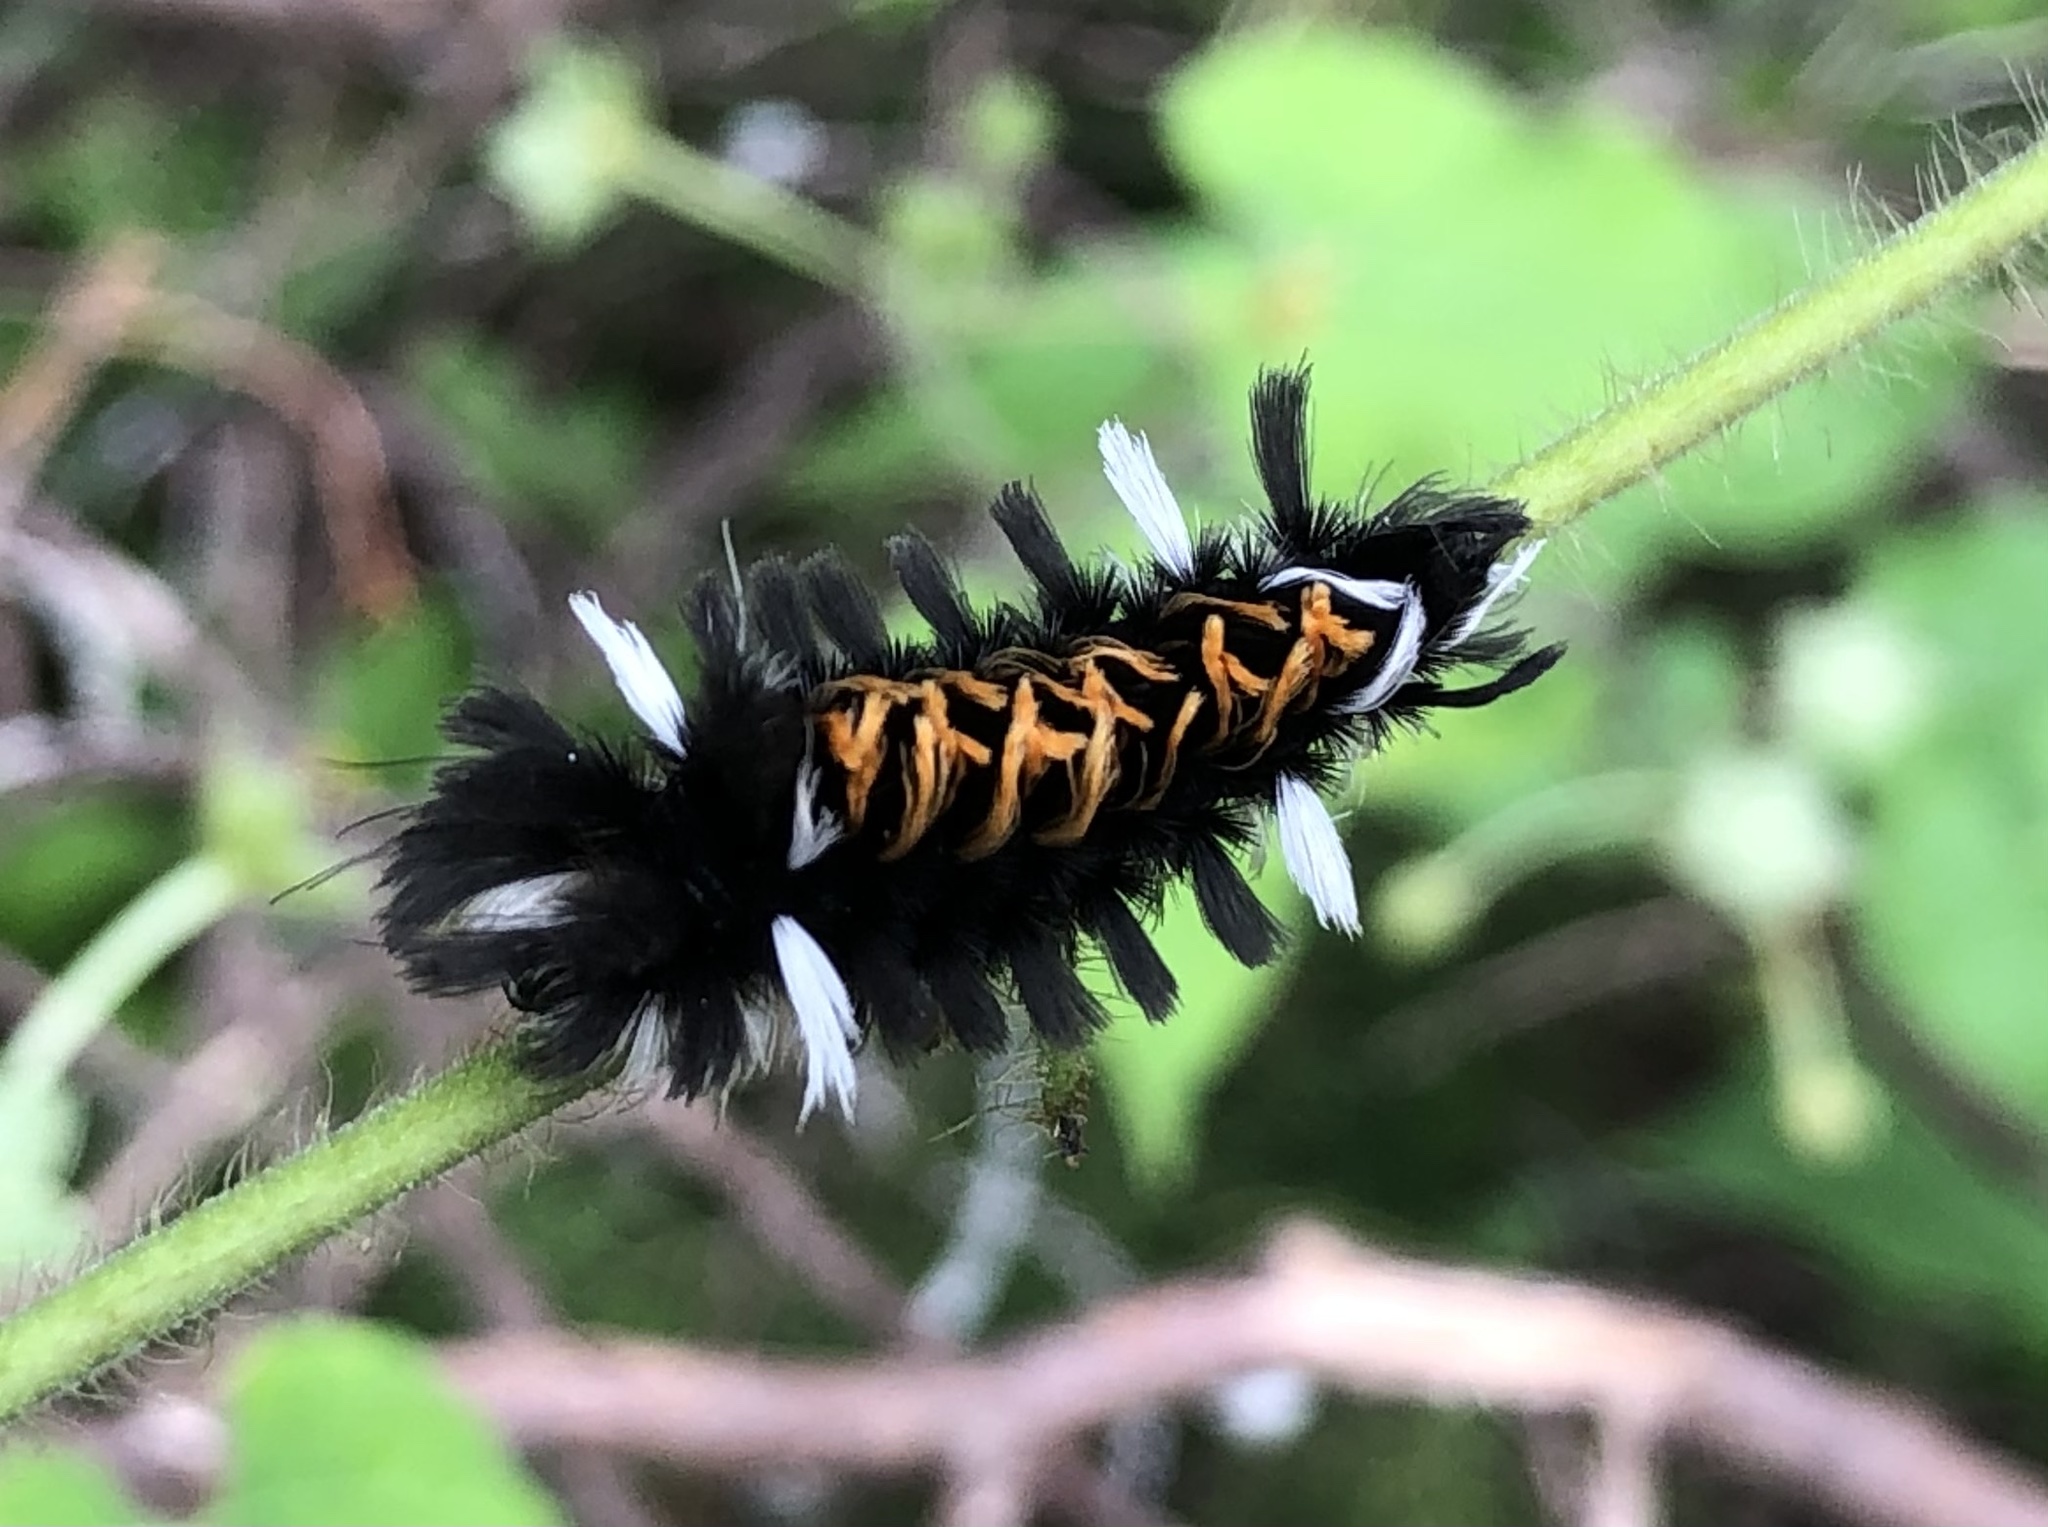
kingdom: Animalia
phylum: Arthropoda
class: Insecta
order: Lepidoptera
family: Erebidae
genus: Euchaetes
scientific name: Euchaetes
